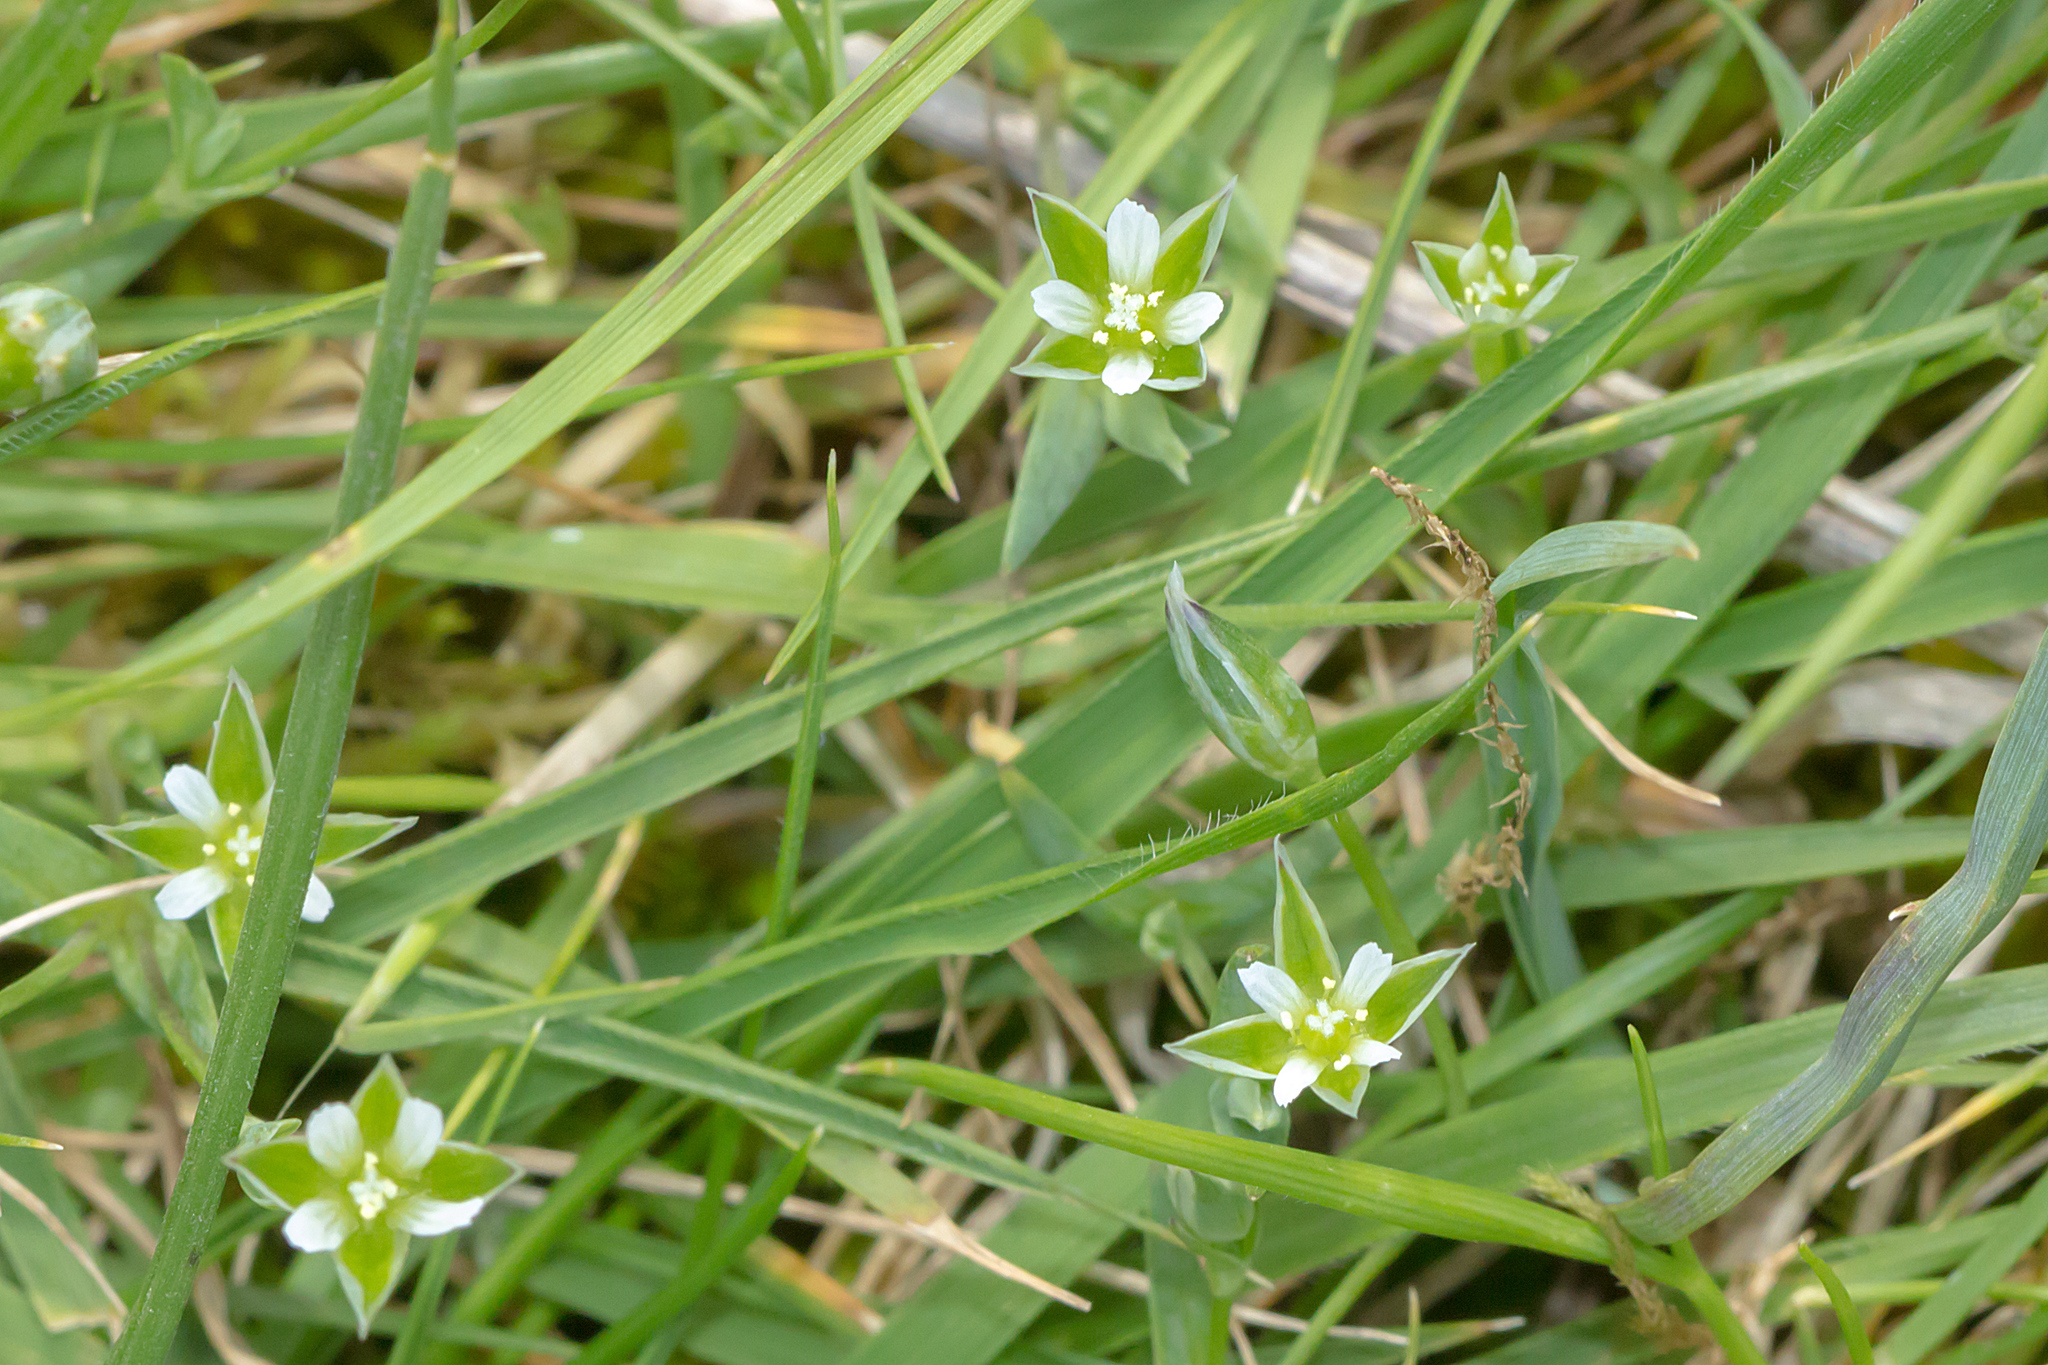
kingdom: Plantae
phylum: Tracheophyta
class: Magnoliopsida
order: Caryophyllales
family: Caryophyllaceae
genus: Moenchia
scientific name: Moenchia erecta
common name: Upright chickweed
